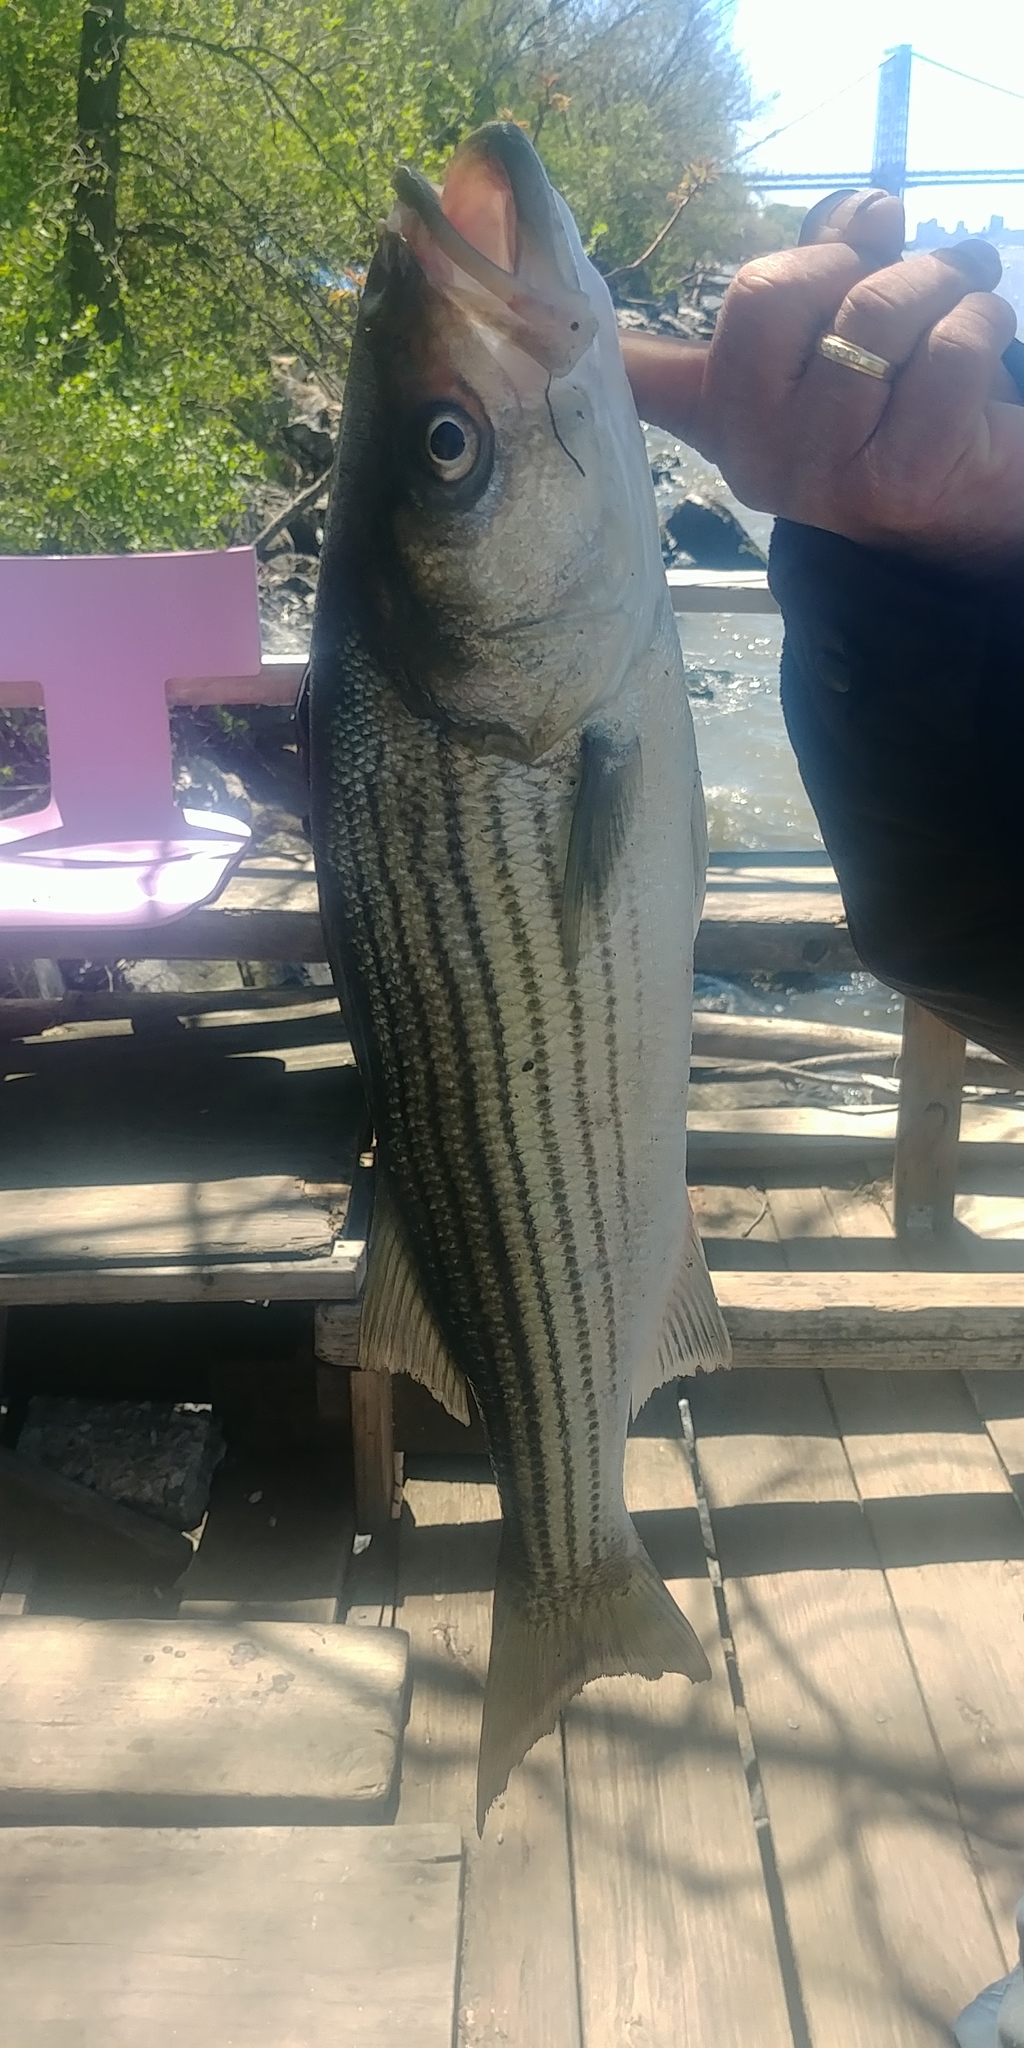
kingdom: Animalia
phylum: Chordata
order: Perciformes
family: Moronidae
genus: Morone
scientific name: Morone saxatilis
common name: Striped bass
